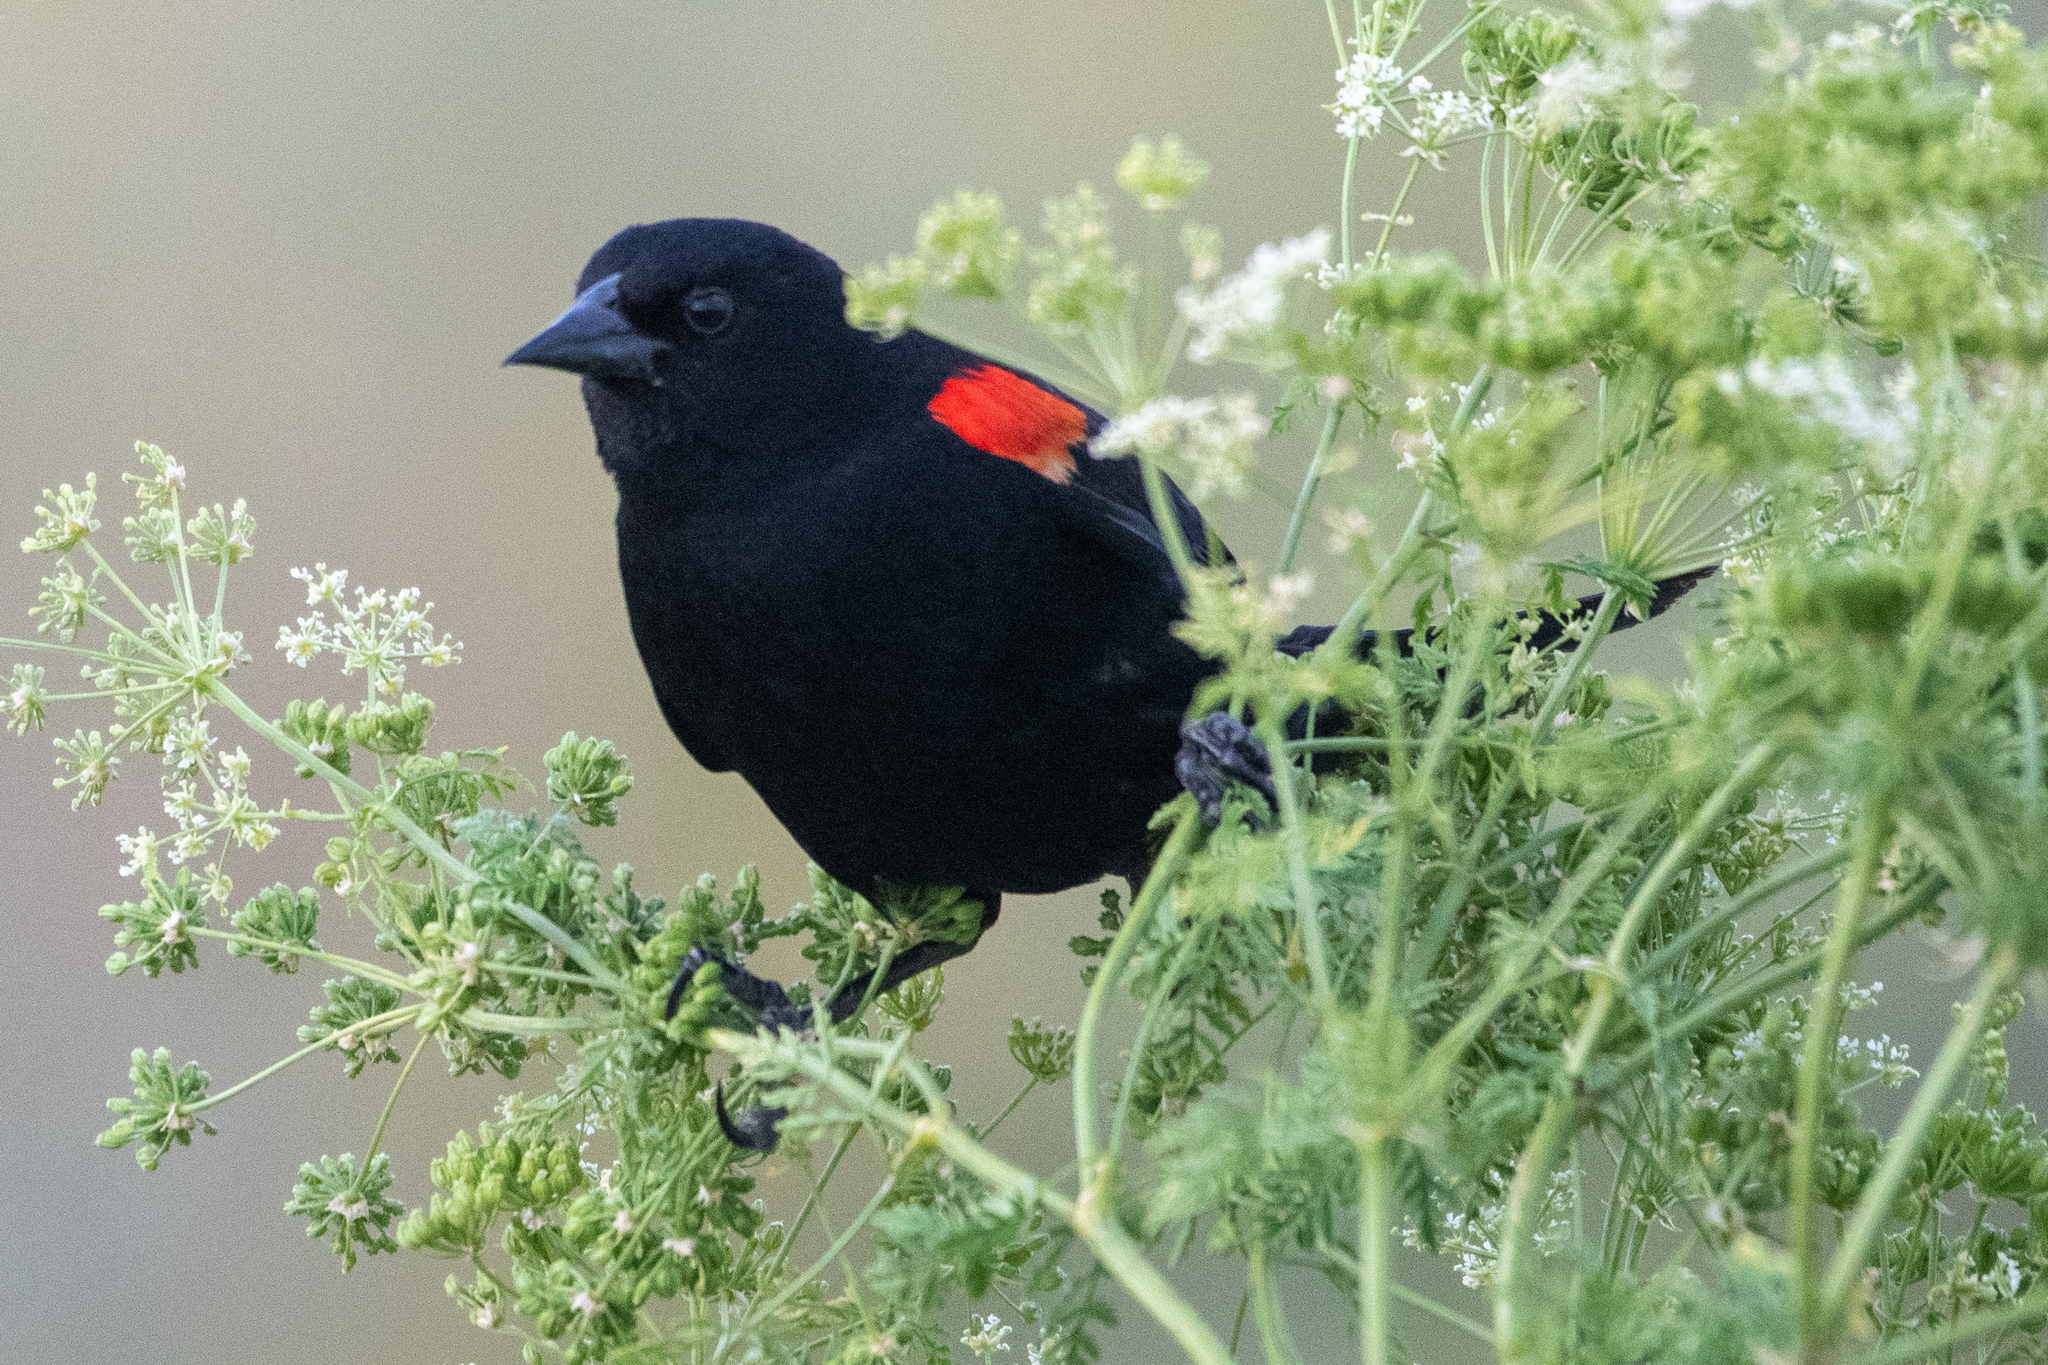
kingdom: Animalia
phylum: Chordata
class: Aves
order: Passeriformes
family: Icteridae
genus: Agelaius
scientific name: Agelaius phoeniceus
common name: Red-winged blackbird
